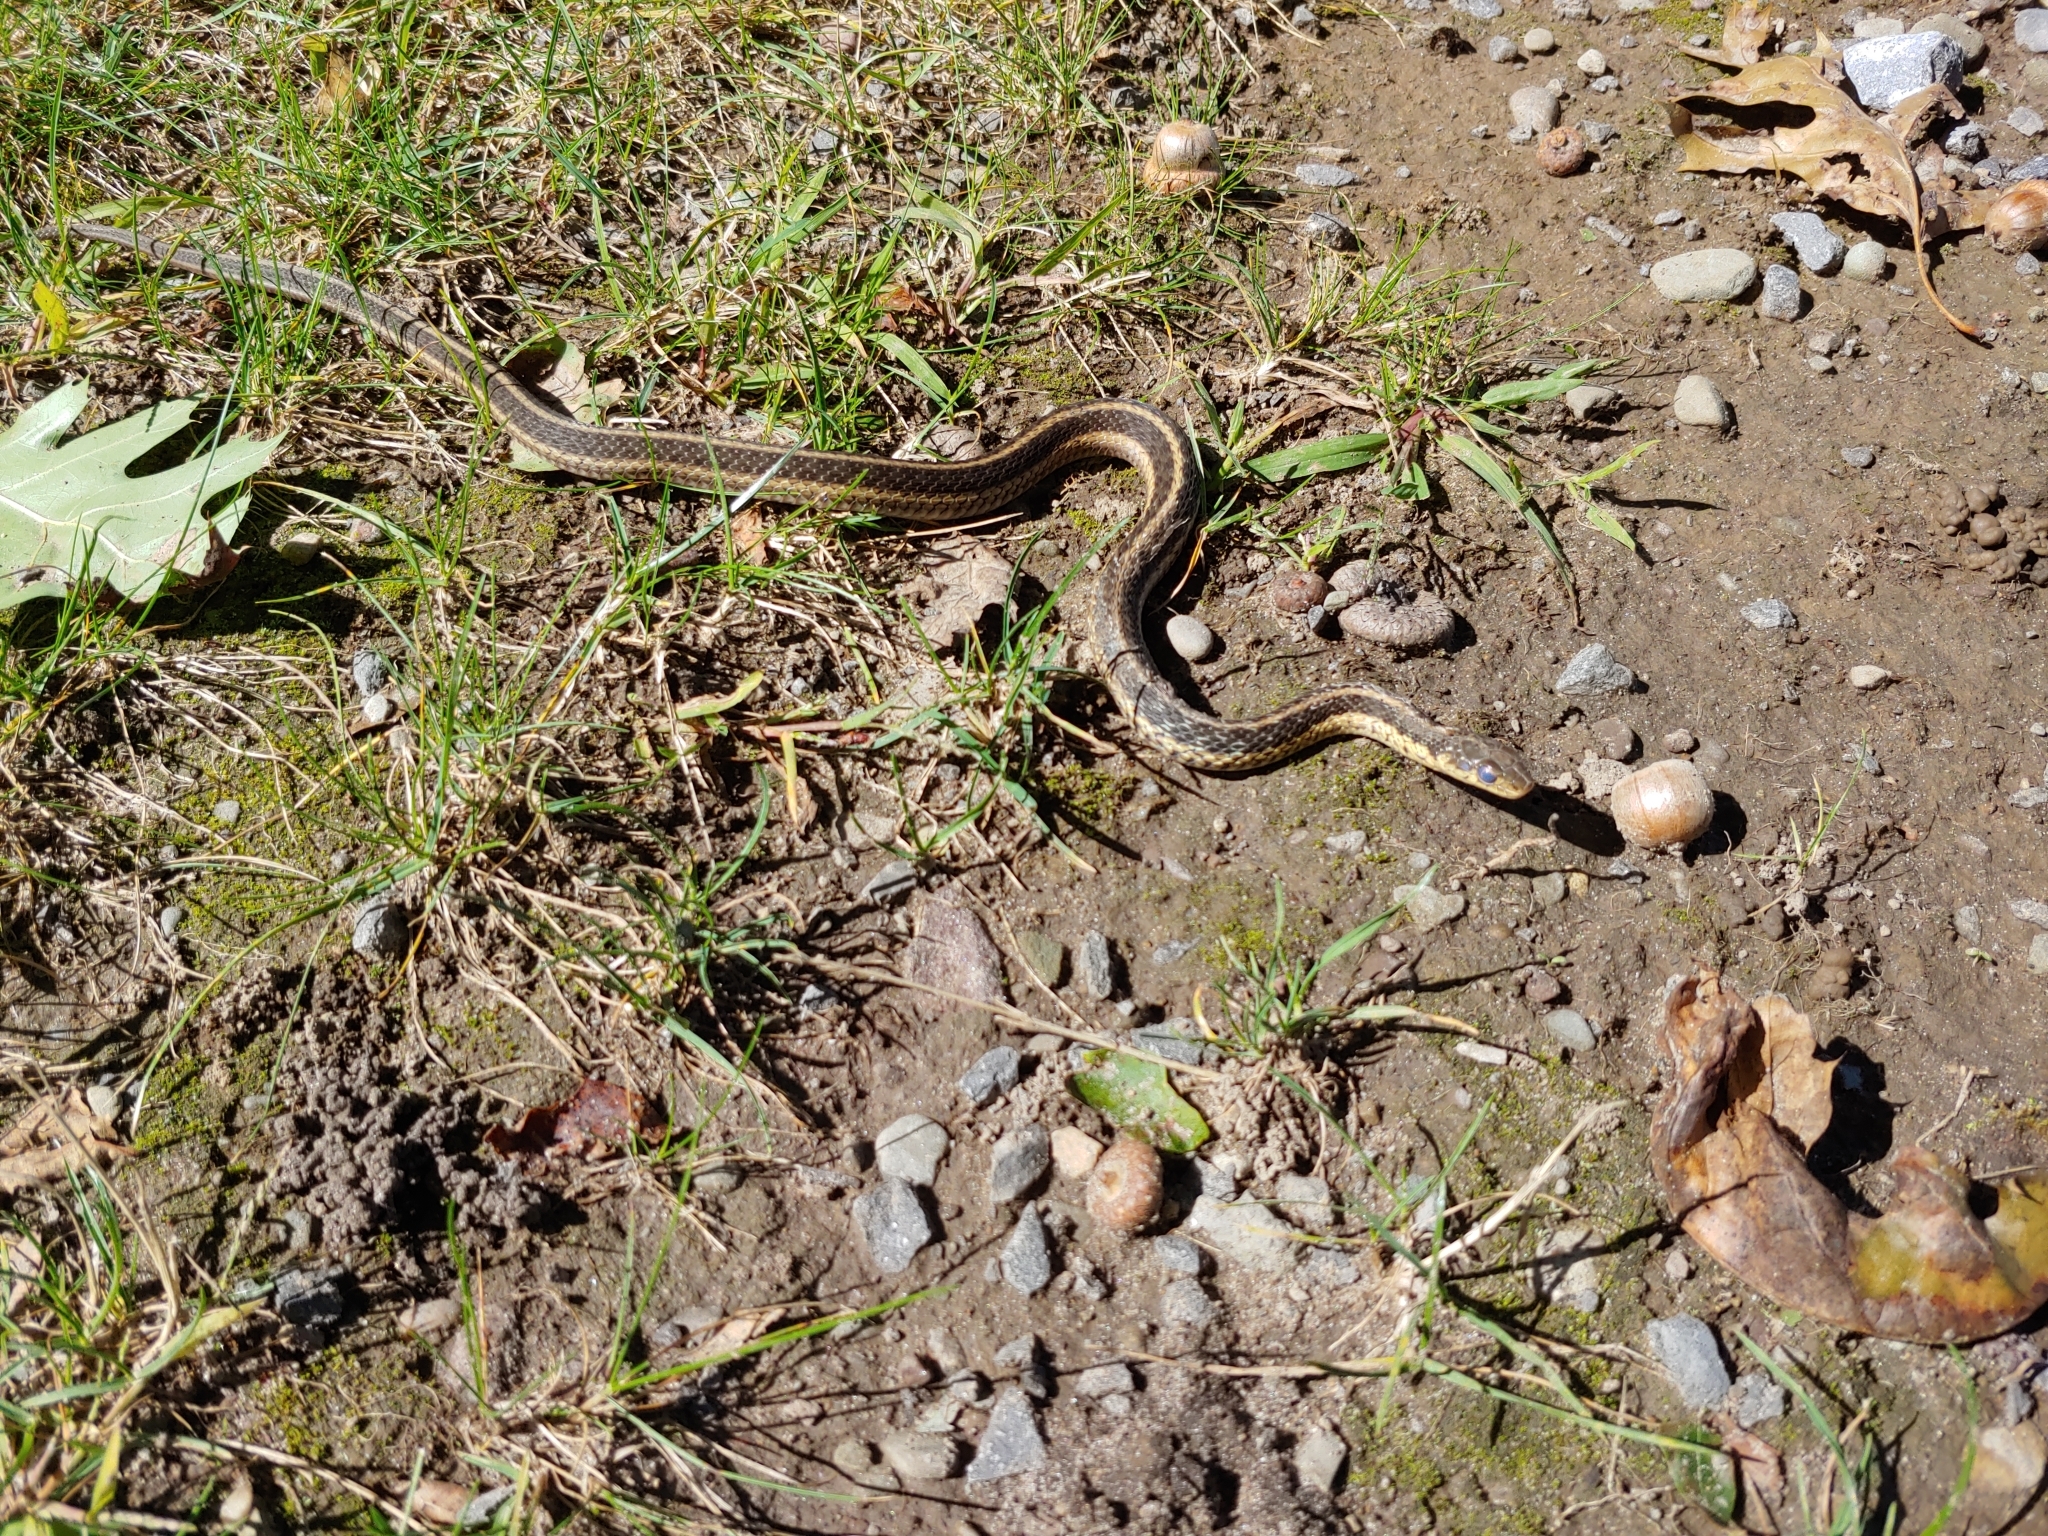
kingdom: Animalia
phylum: Chordata
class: Squamata
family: Colubridae
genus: Thamnophis
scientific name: Thamnophis sirtalis
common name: Common garter snake
